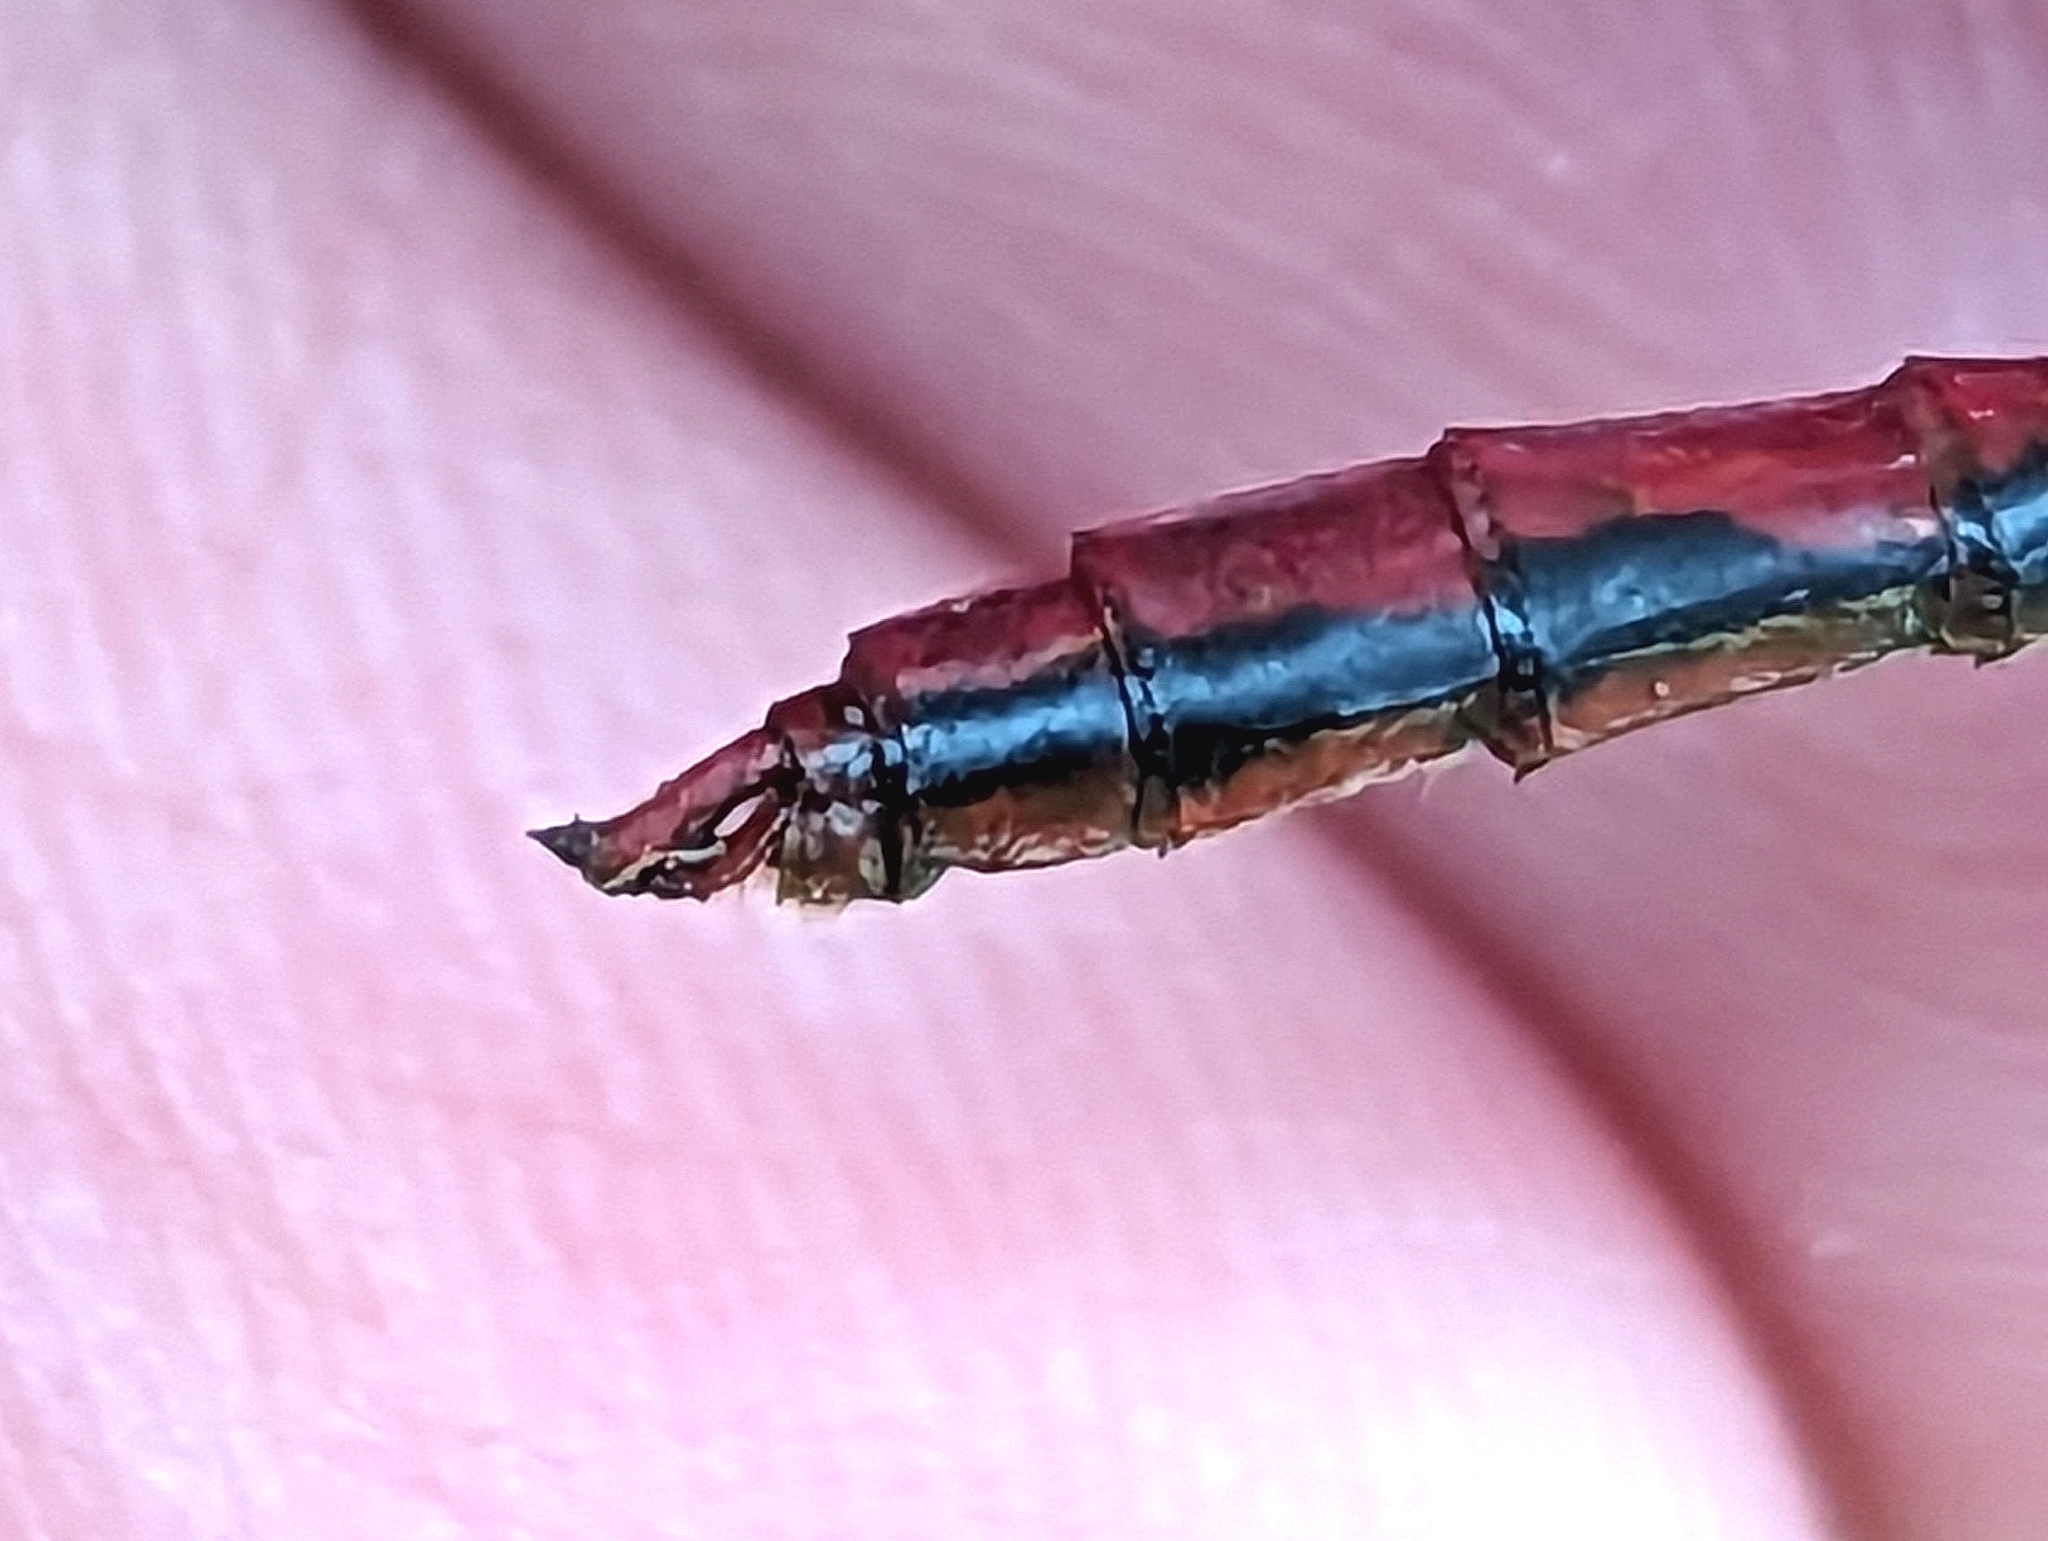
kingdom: Animalia
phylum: Arthropoda
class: Insecta
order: Odonata
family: Libellulidae
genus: Sympetrum
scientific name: Sympetrum internum
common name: Cherry-faced meadowhawk
